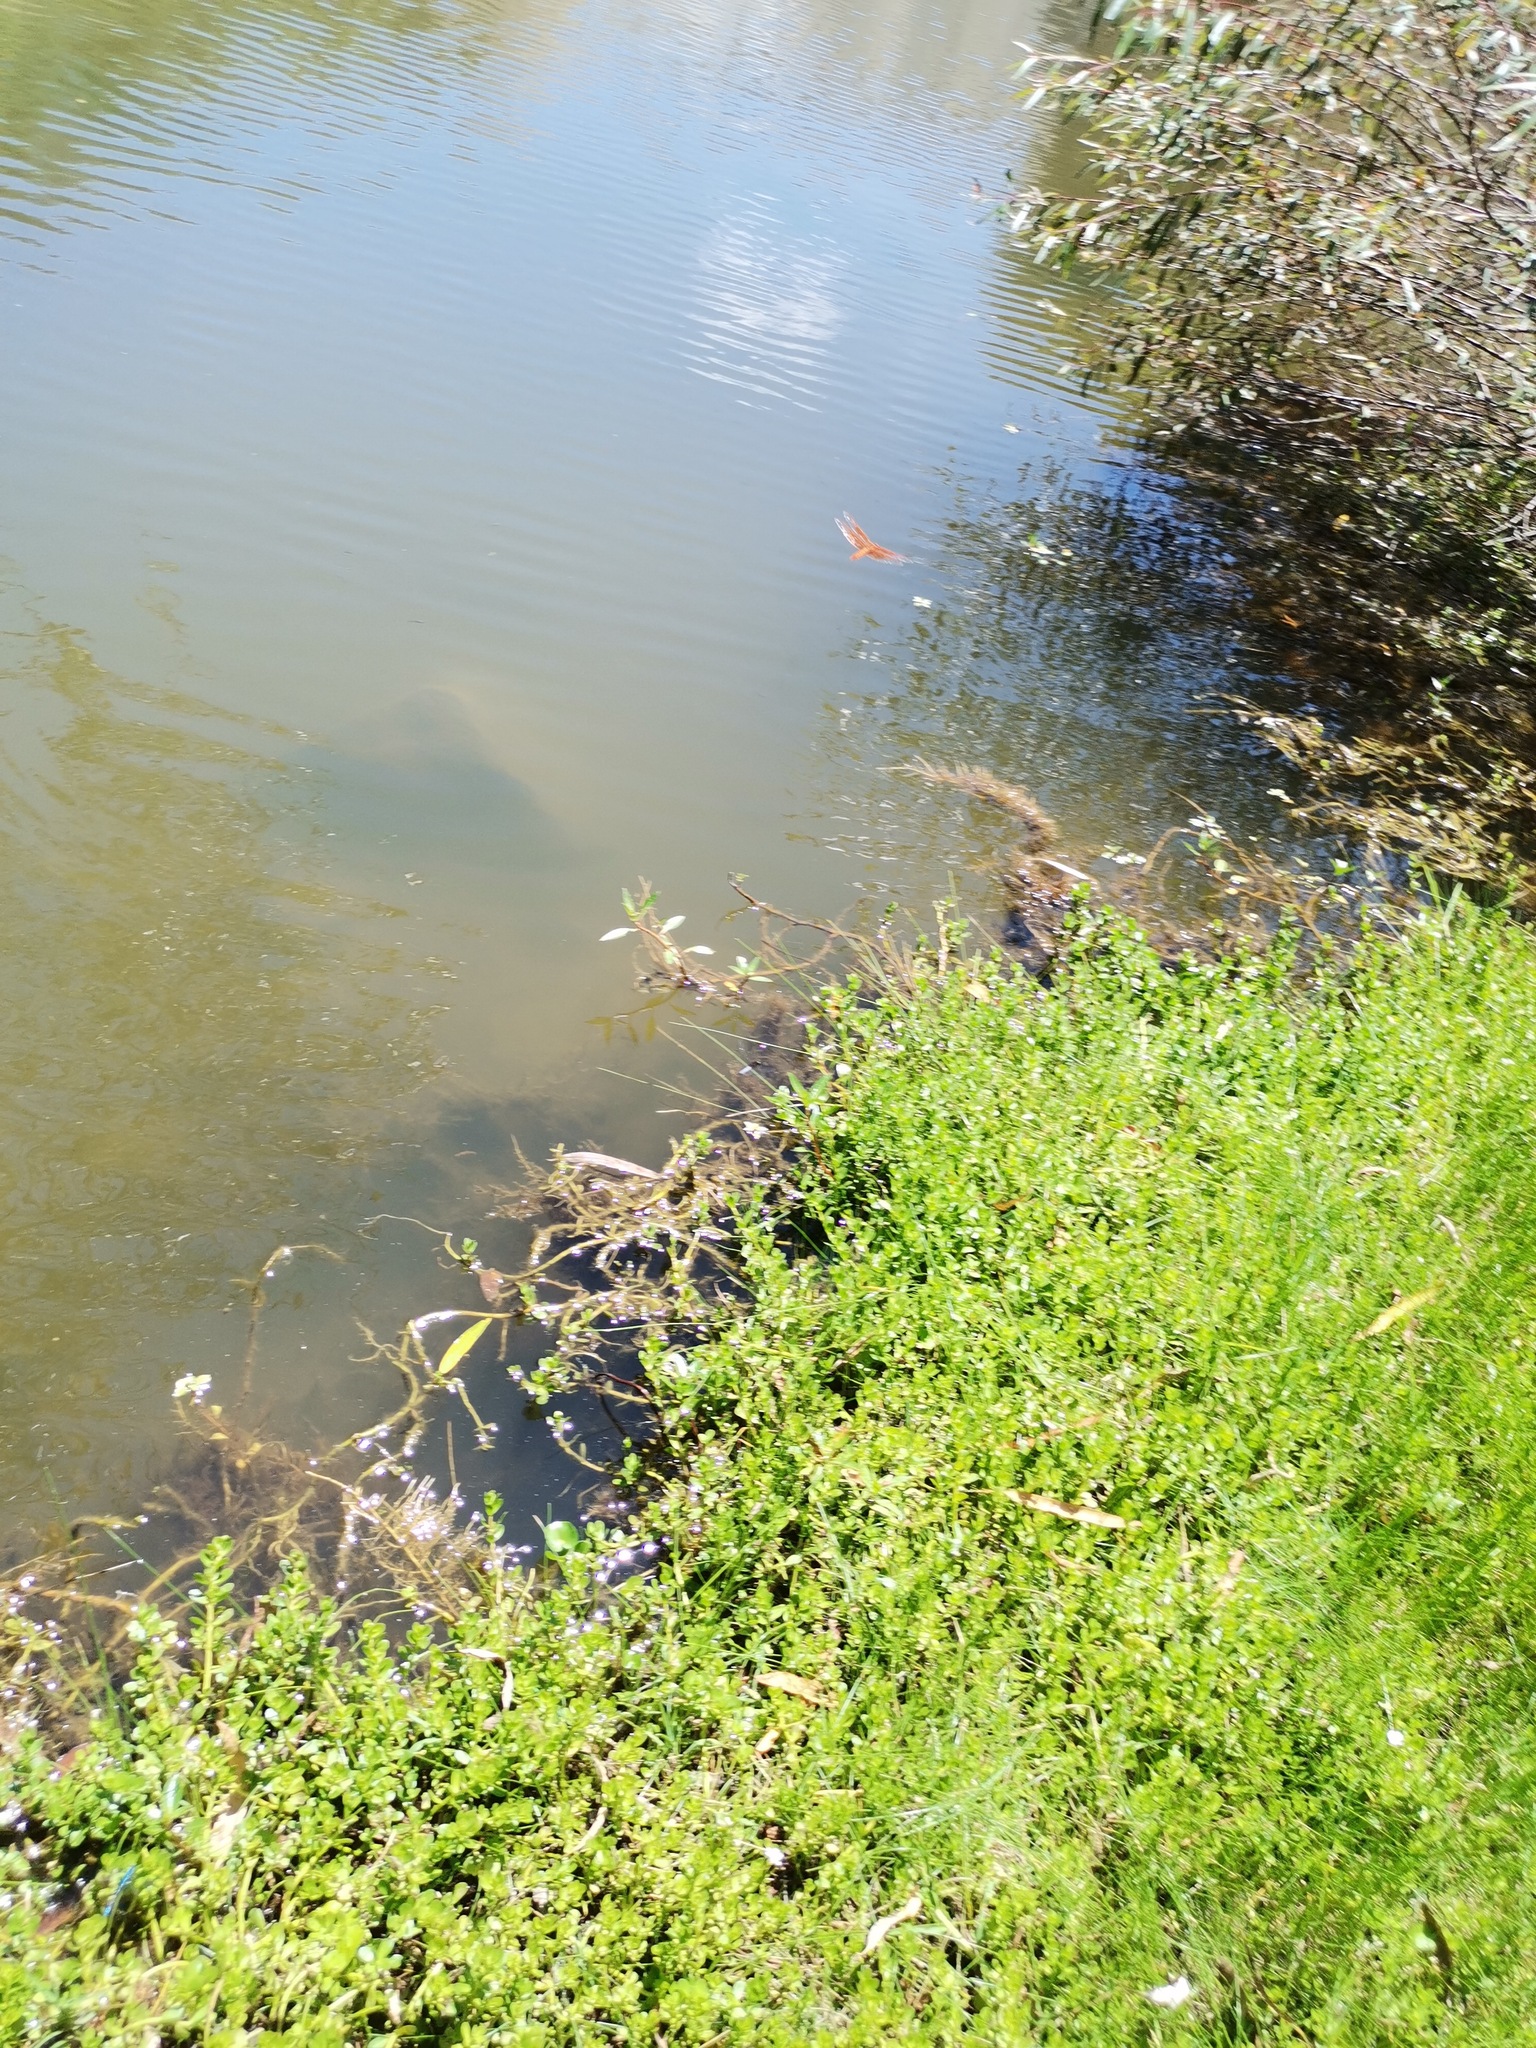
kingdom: Animalia
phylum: Arthropoda
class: Insecta
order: Odonata
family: Libellulidae
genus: Libellula
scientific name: Libellula saturata
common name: Flame skimmer
